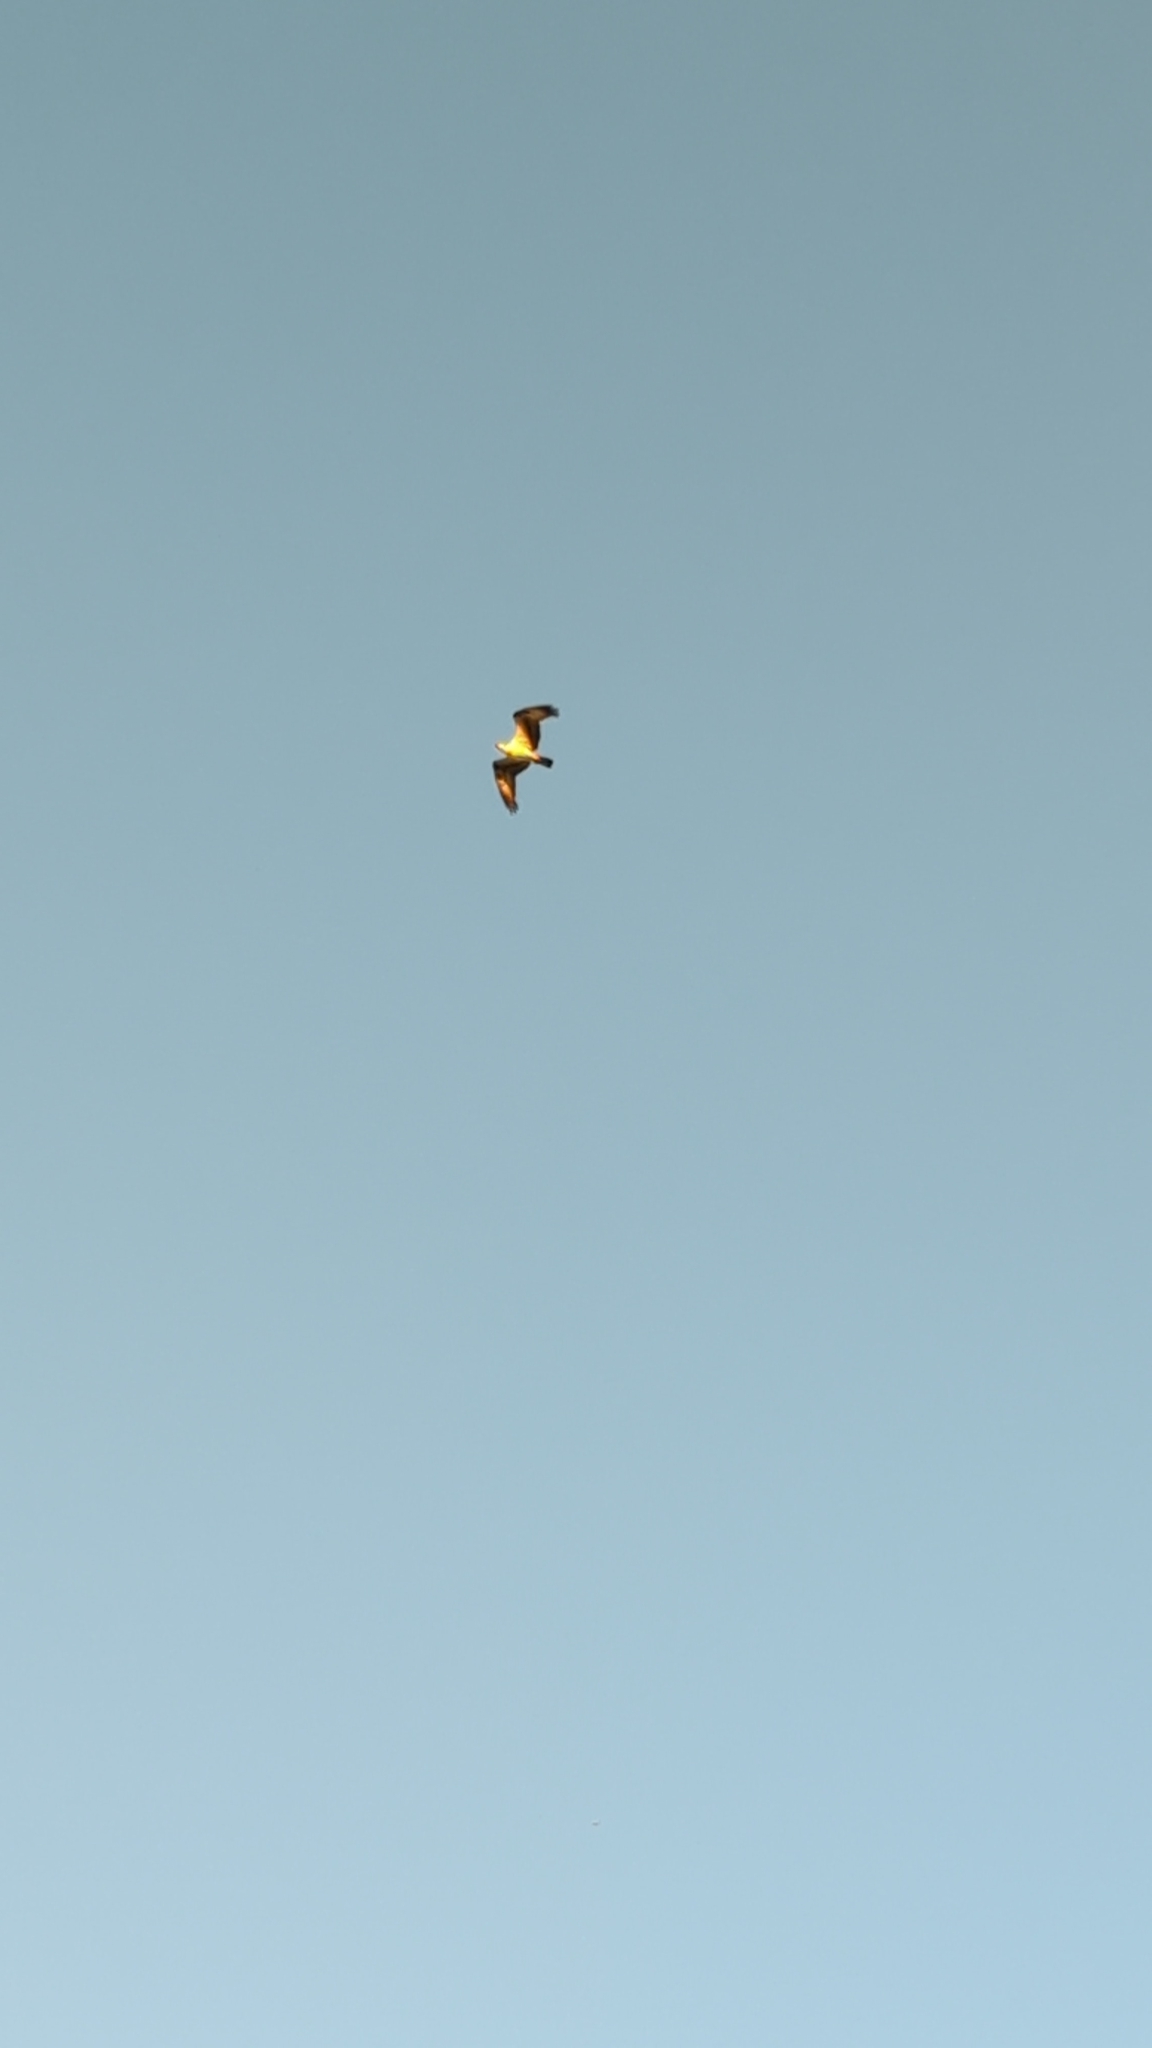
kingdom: Animalia
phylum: Chordata
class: Aves
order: Accipitriformes
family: Pandionidae
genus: Pandion
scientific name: Pandion haliaetus
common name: Osprey
